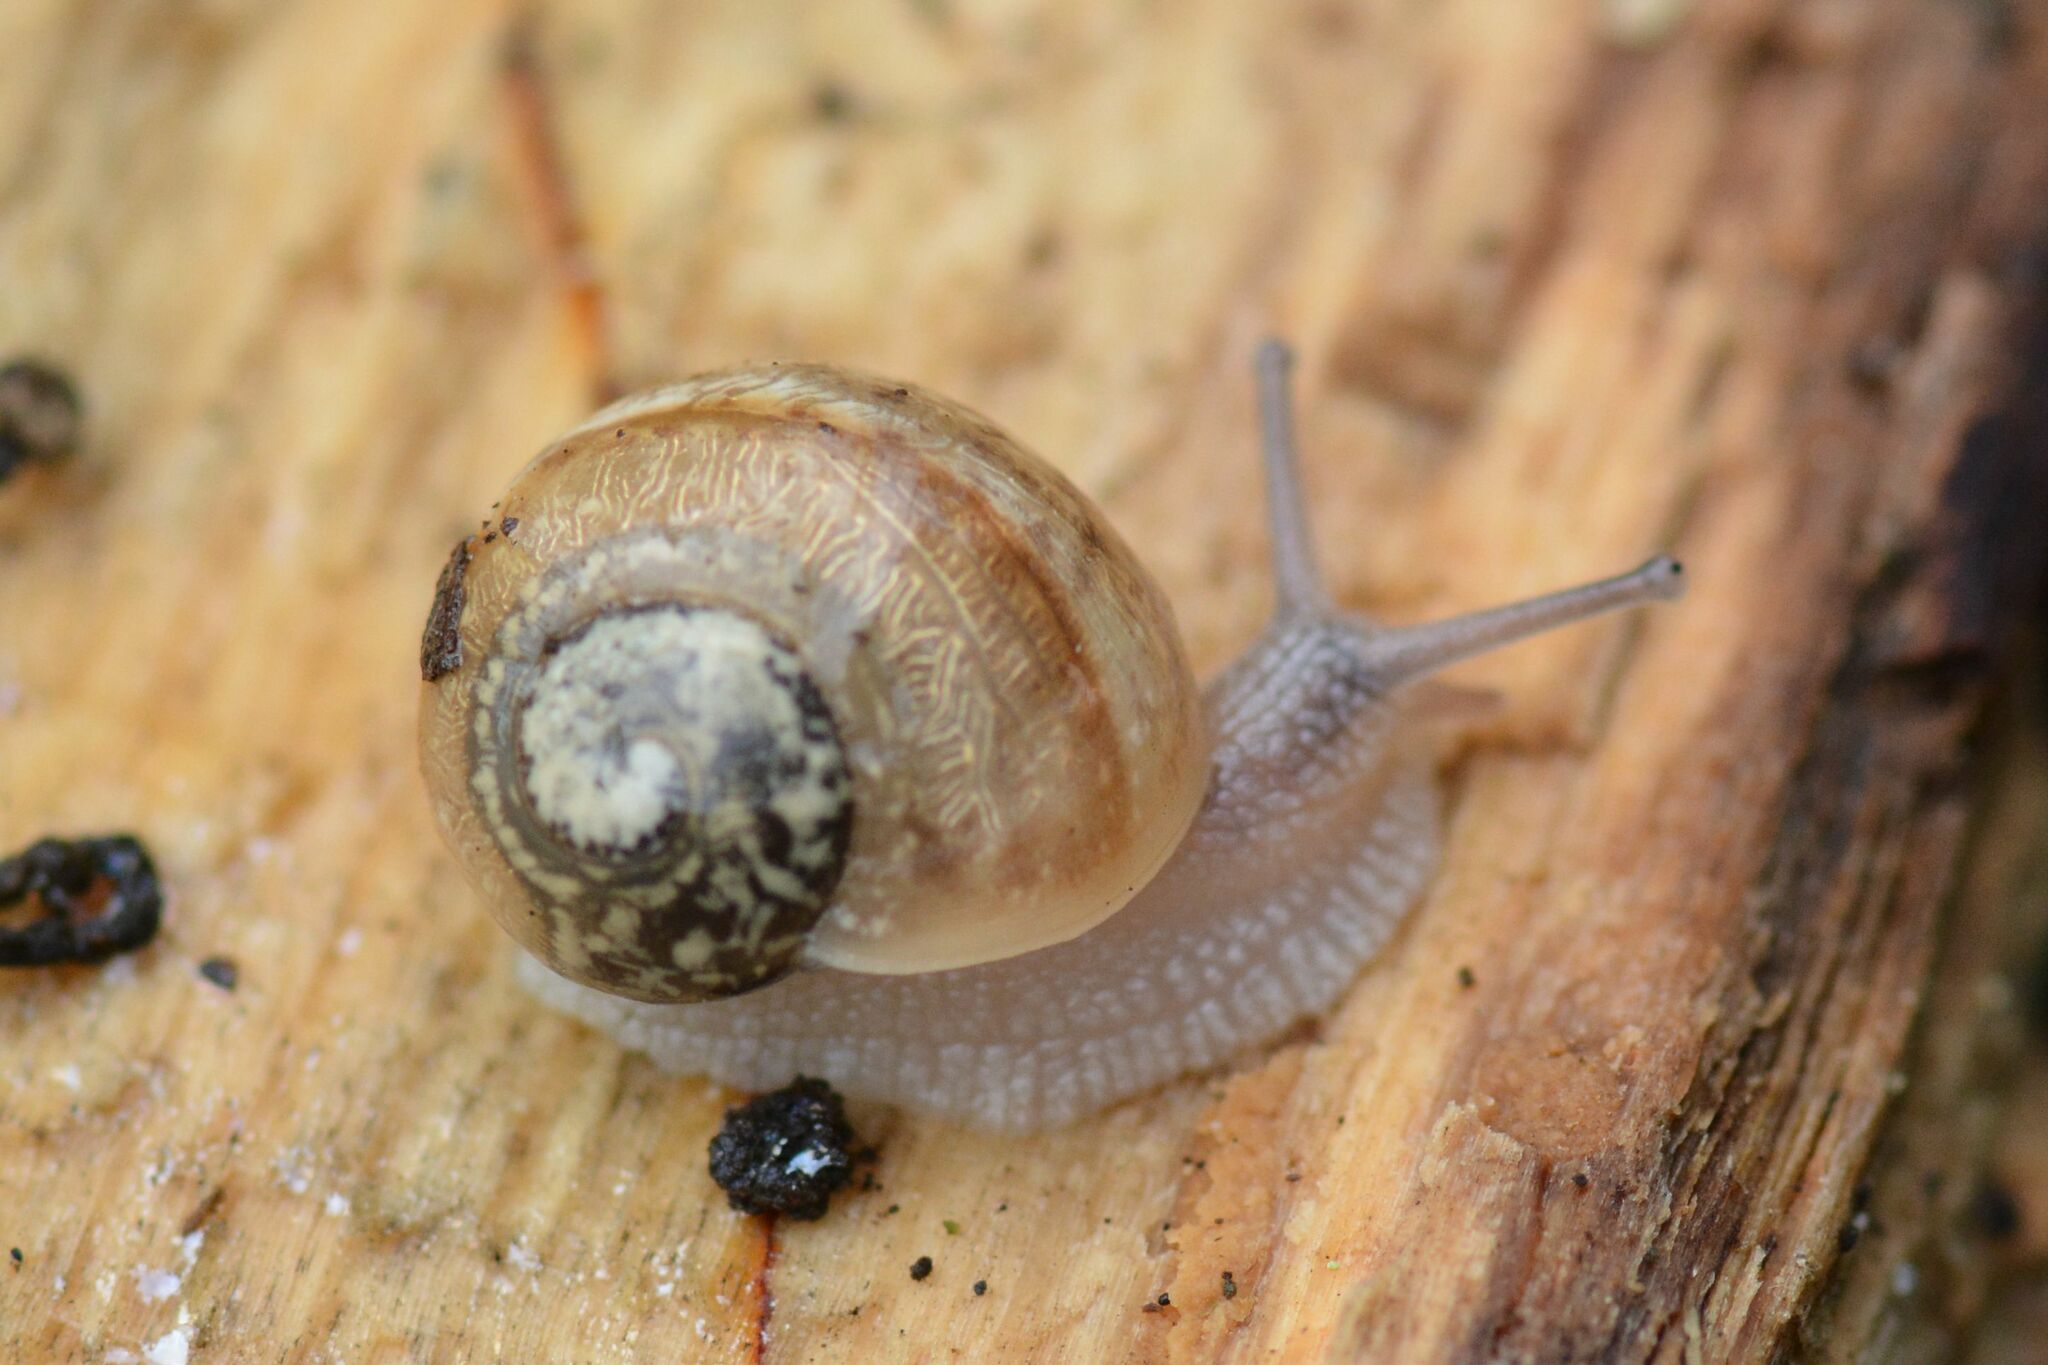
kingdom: Animalia
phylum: Mollusca
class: Gastropoda
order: Stylommatophora
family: Helicidae
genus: Helix
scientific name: Helix pomatia
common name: Roman snail
